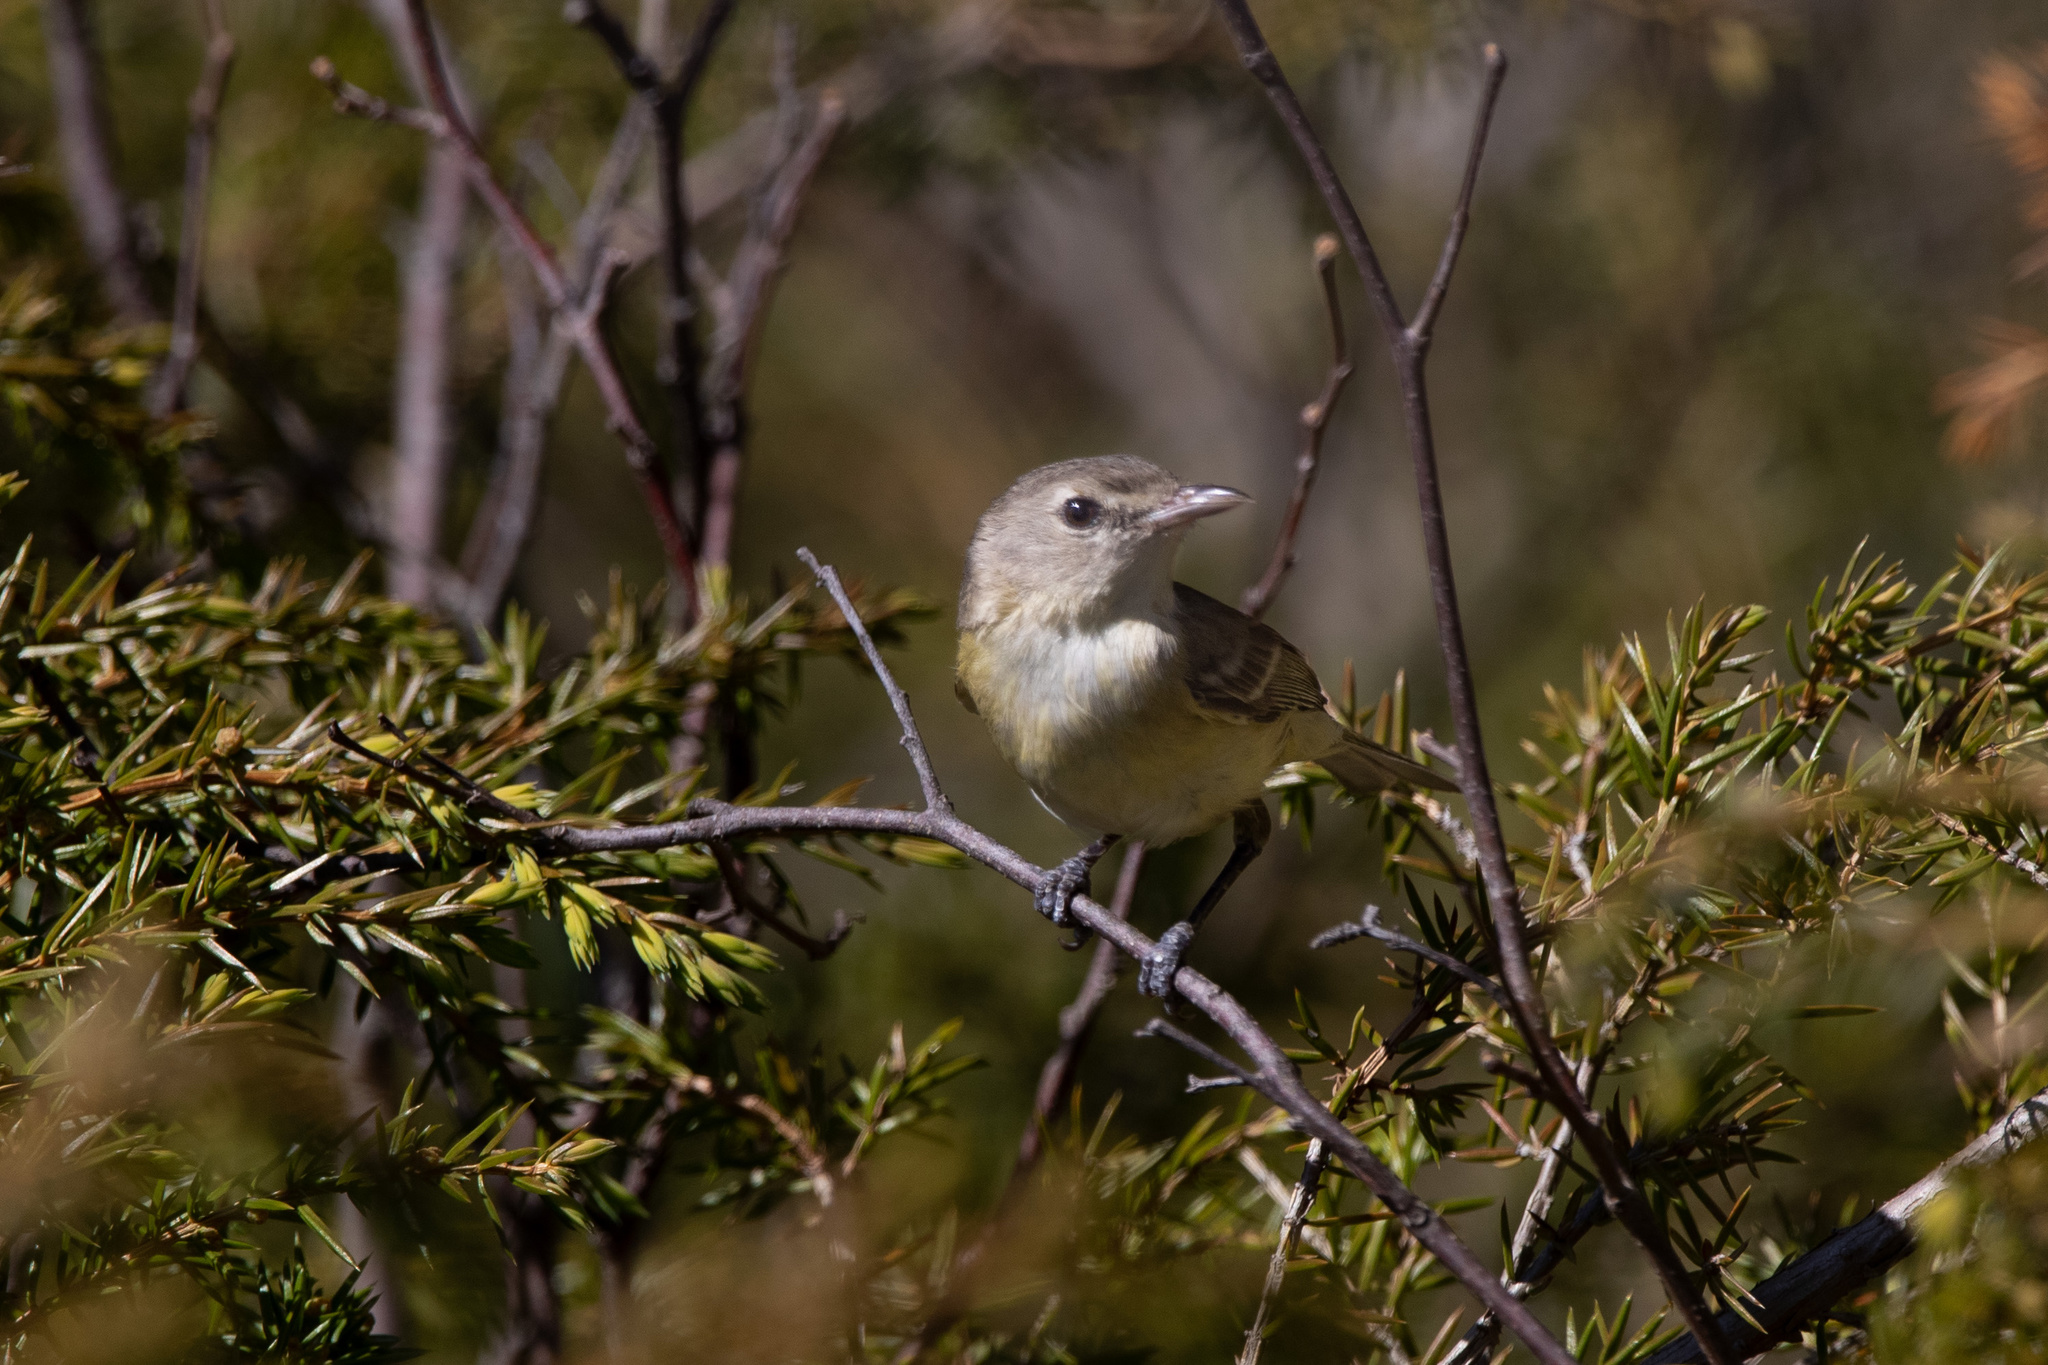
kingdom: Animalia
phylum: Chordata
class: Aves
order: Passeriformes
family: Vireonidae
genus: Vireo
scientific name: Vireo bellii
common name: Bell's vireo
